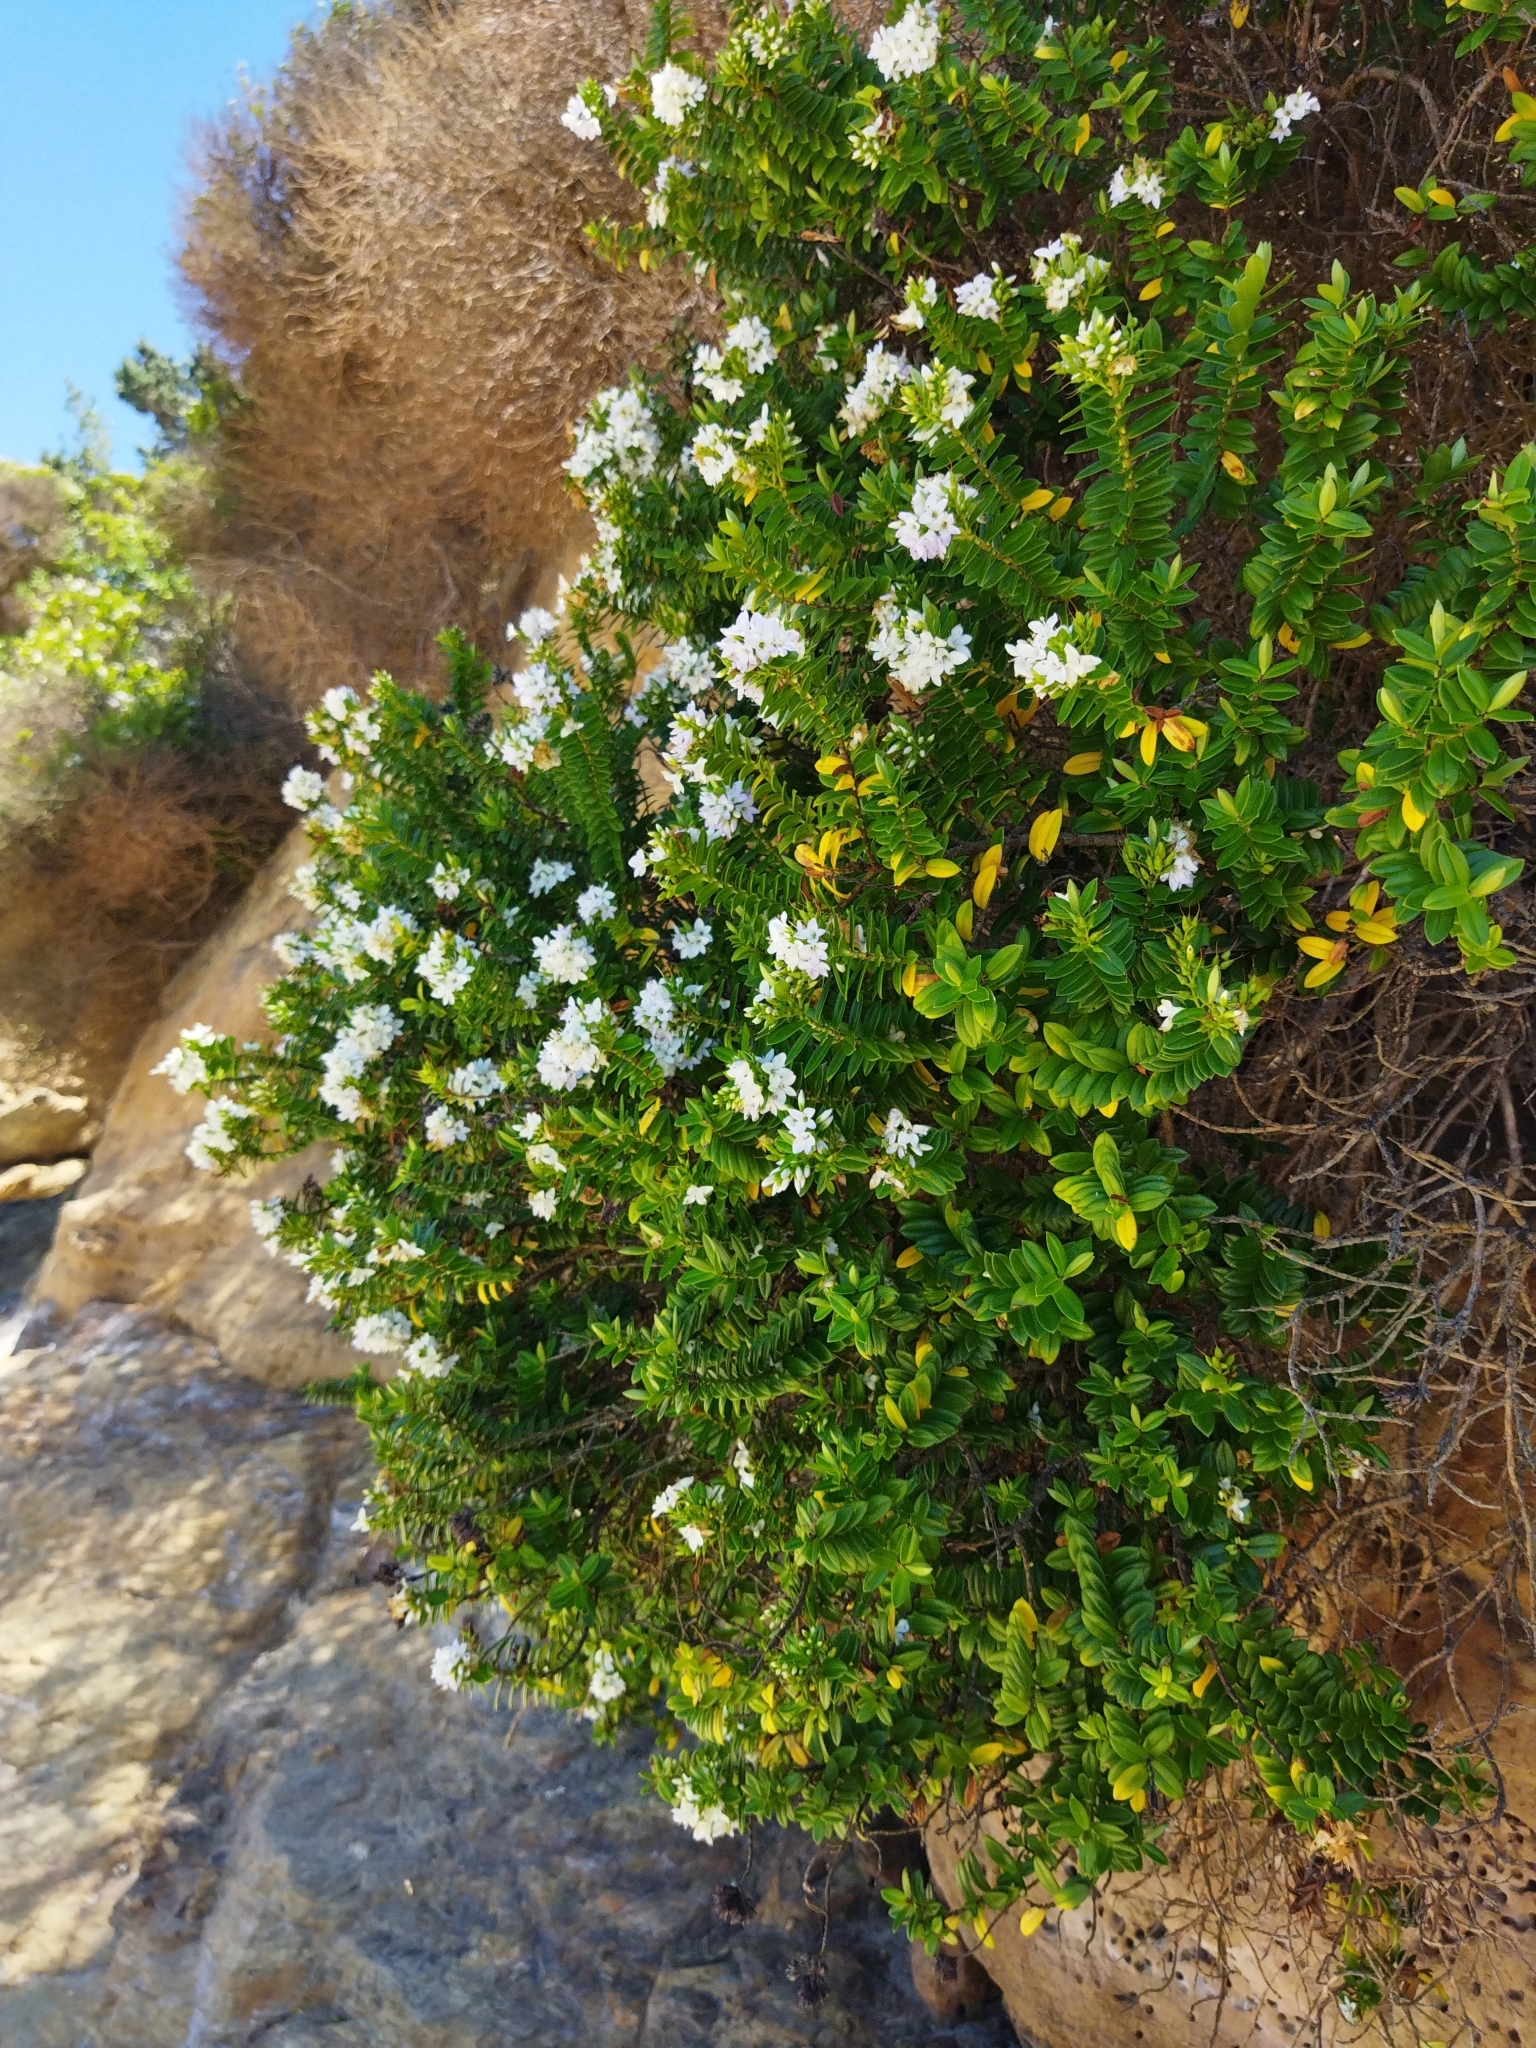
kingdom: Plantae
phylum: Tracheophyta
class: Magnoliopsida
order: Lamiales
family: Plantaginaceae
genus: Veronica
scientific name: Veronica elliptica
